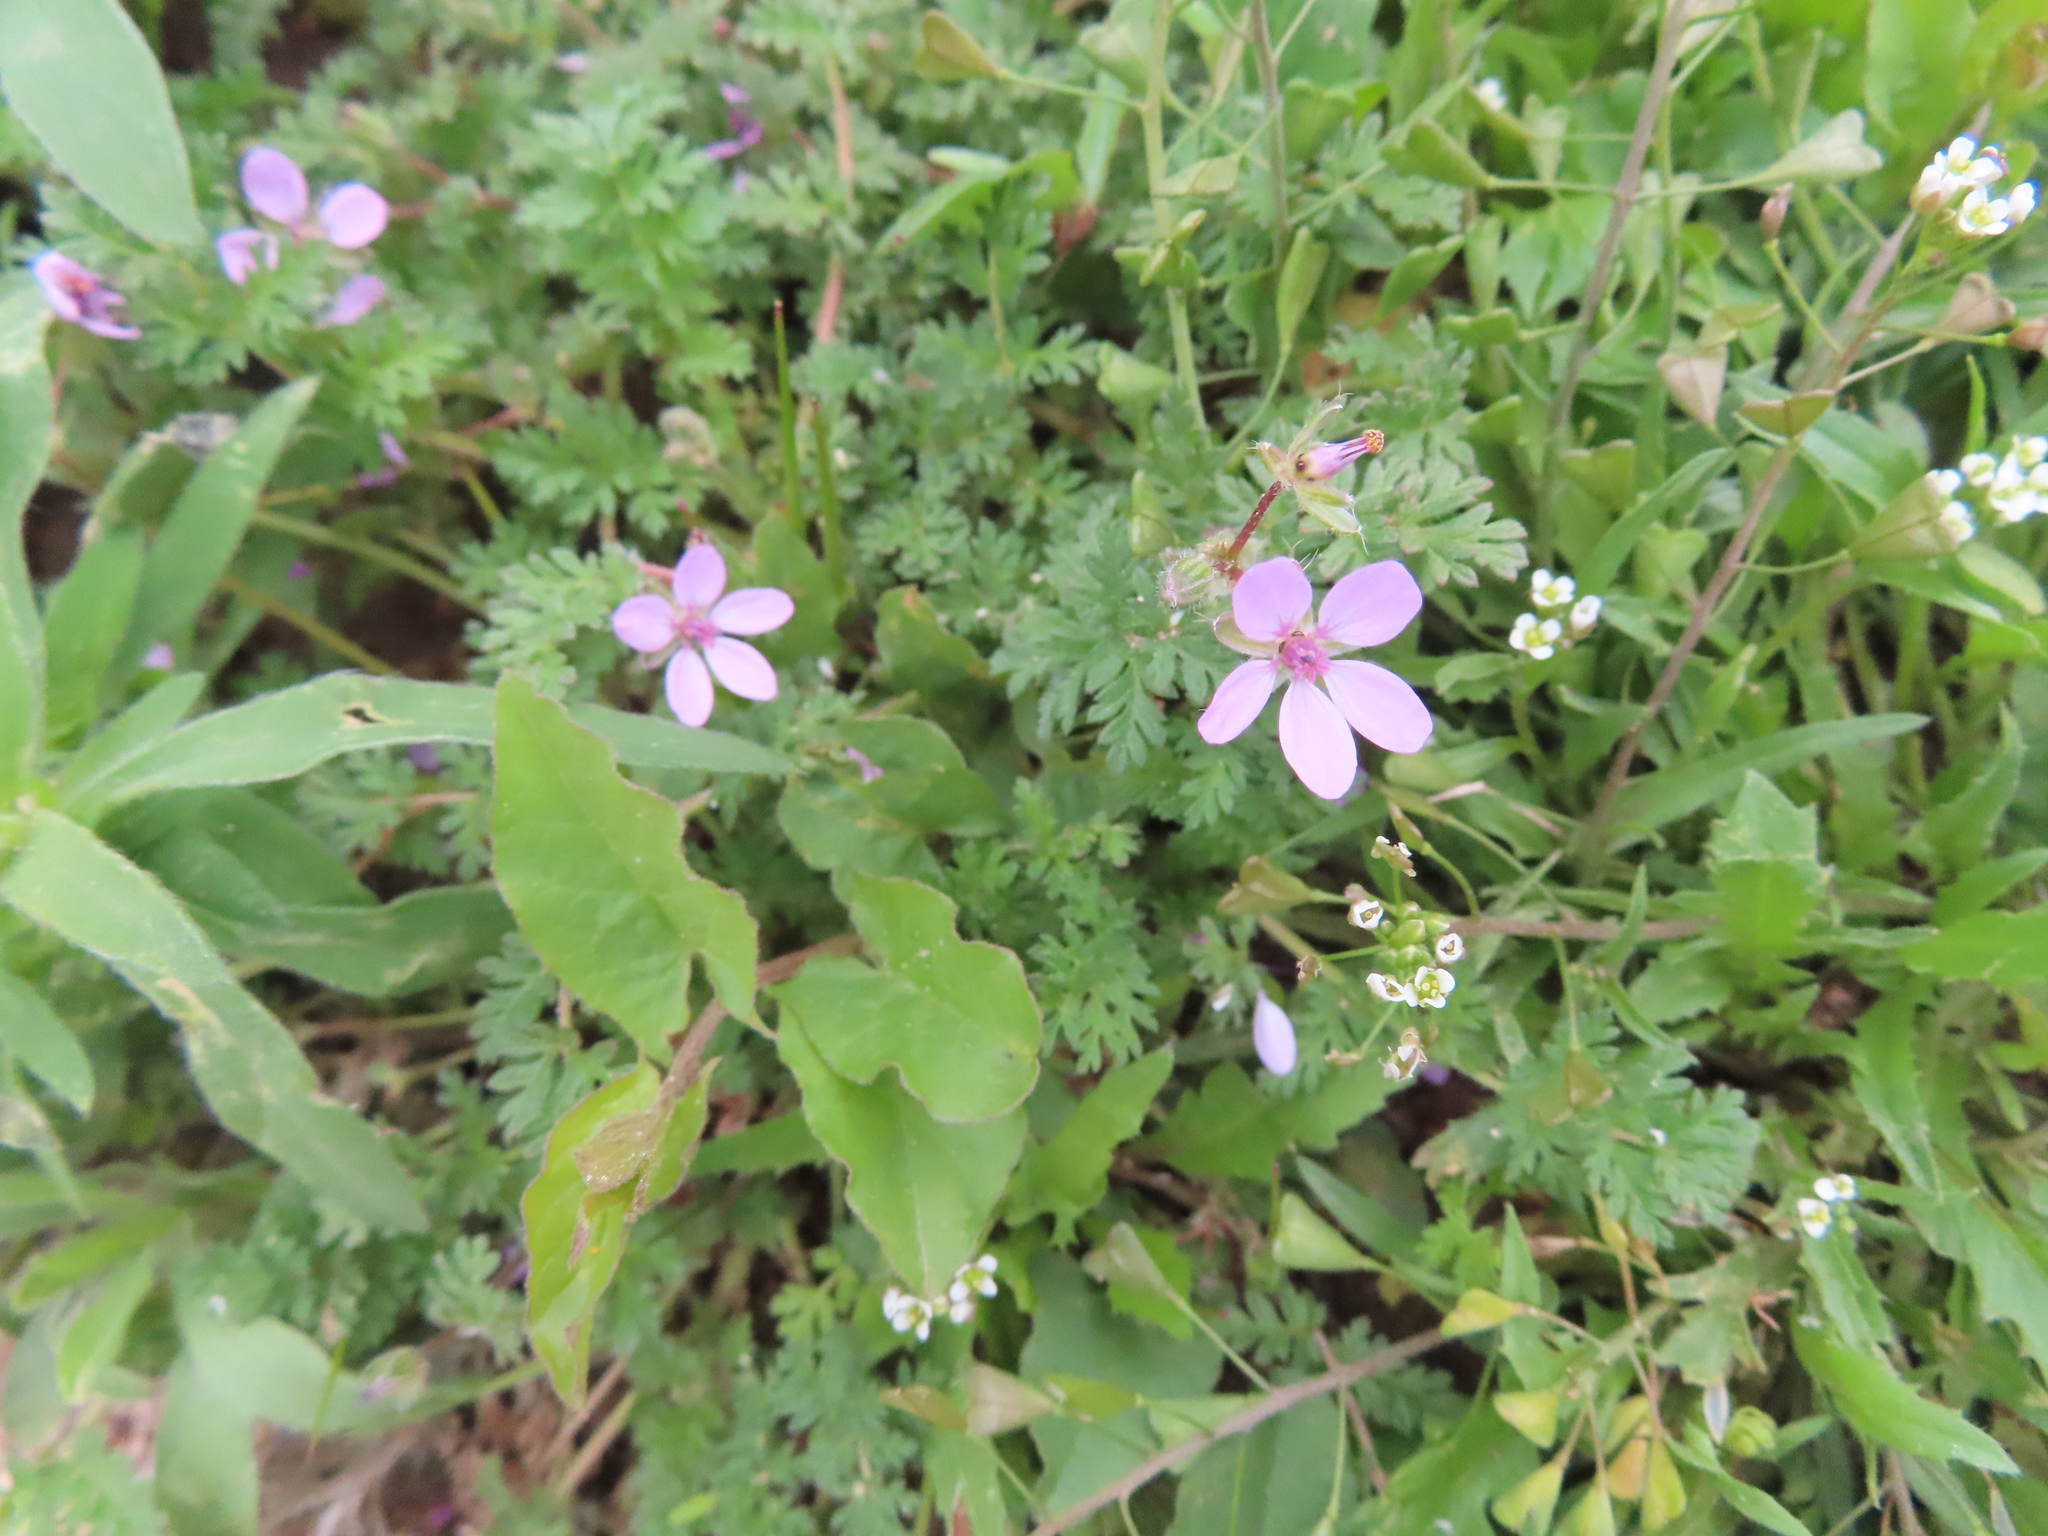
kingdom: Plantae
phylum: Tracheophyta
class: Magnoliopsida
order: Geraniales
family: Geraniaceae
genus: Erodium
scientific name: Erodium cicutarium
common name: Common stork's-bill
